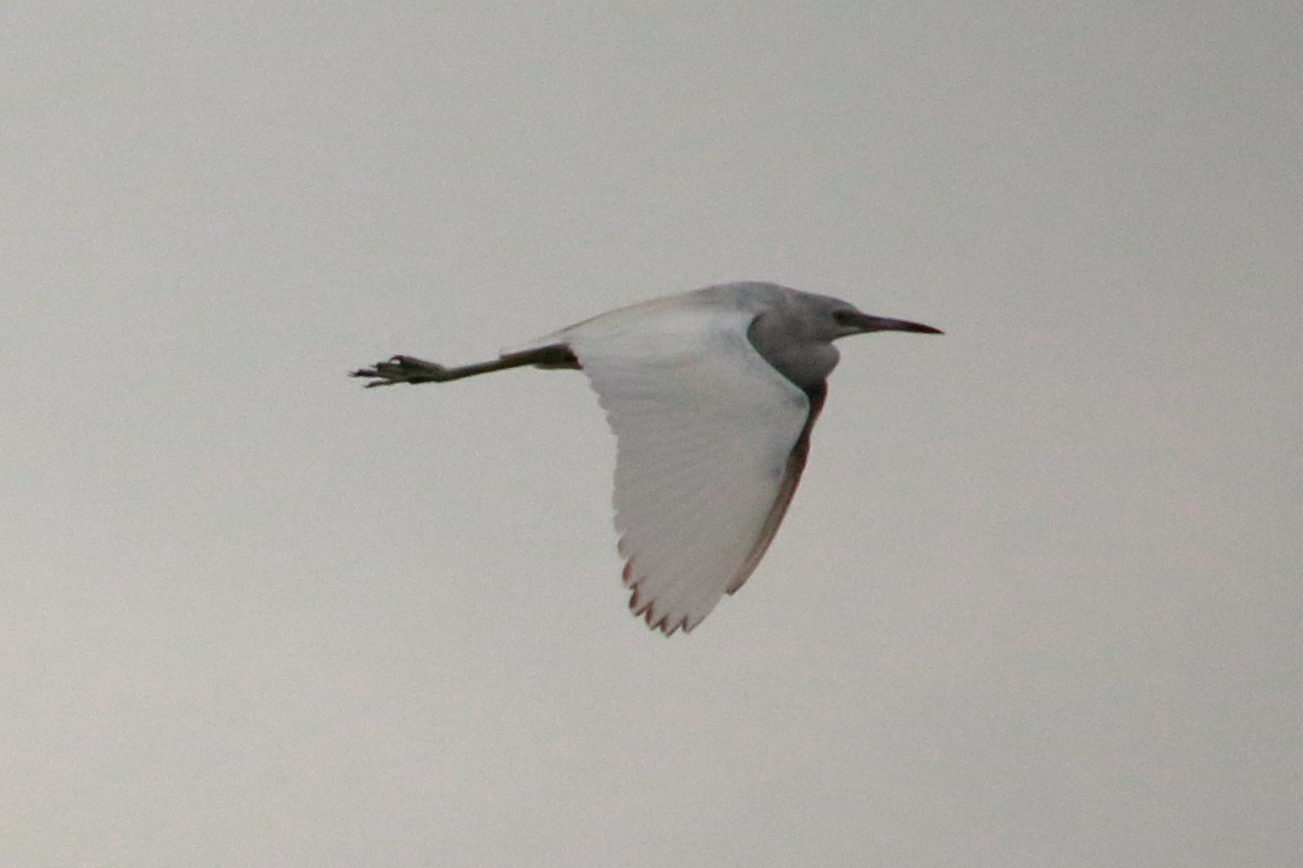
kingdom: Animalia
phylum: Chordata
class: Aves
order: Pelecaniformes
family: Ardeidae
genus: Egretta
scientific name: Egretta caerulea
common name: Little blue heron
